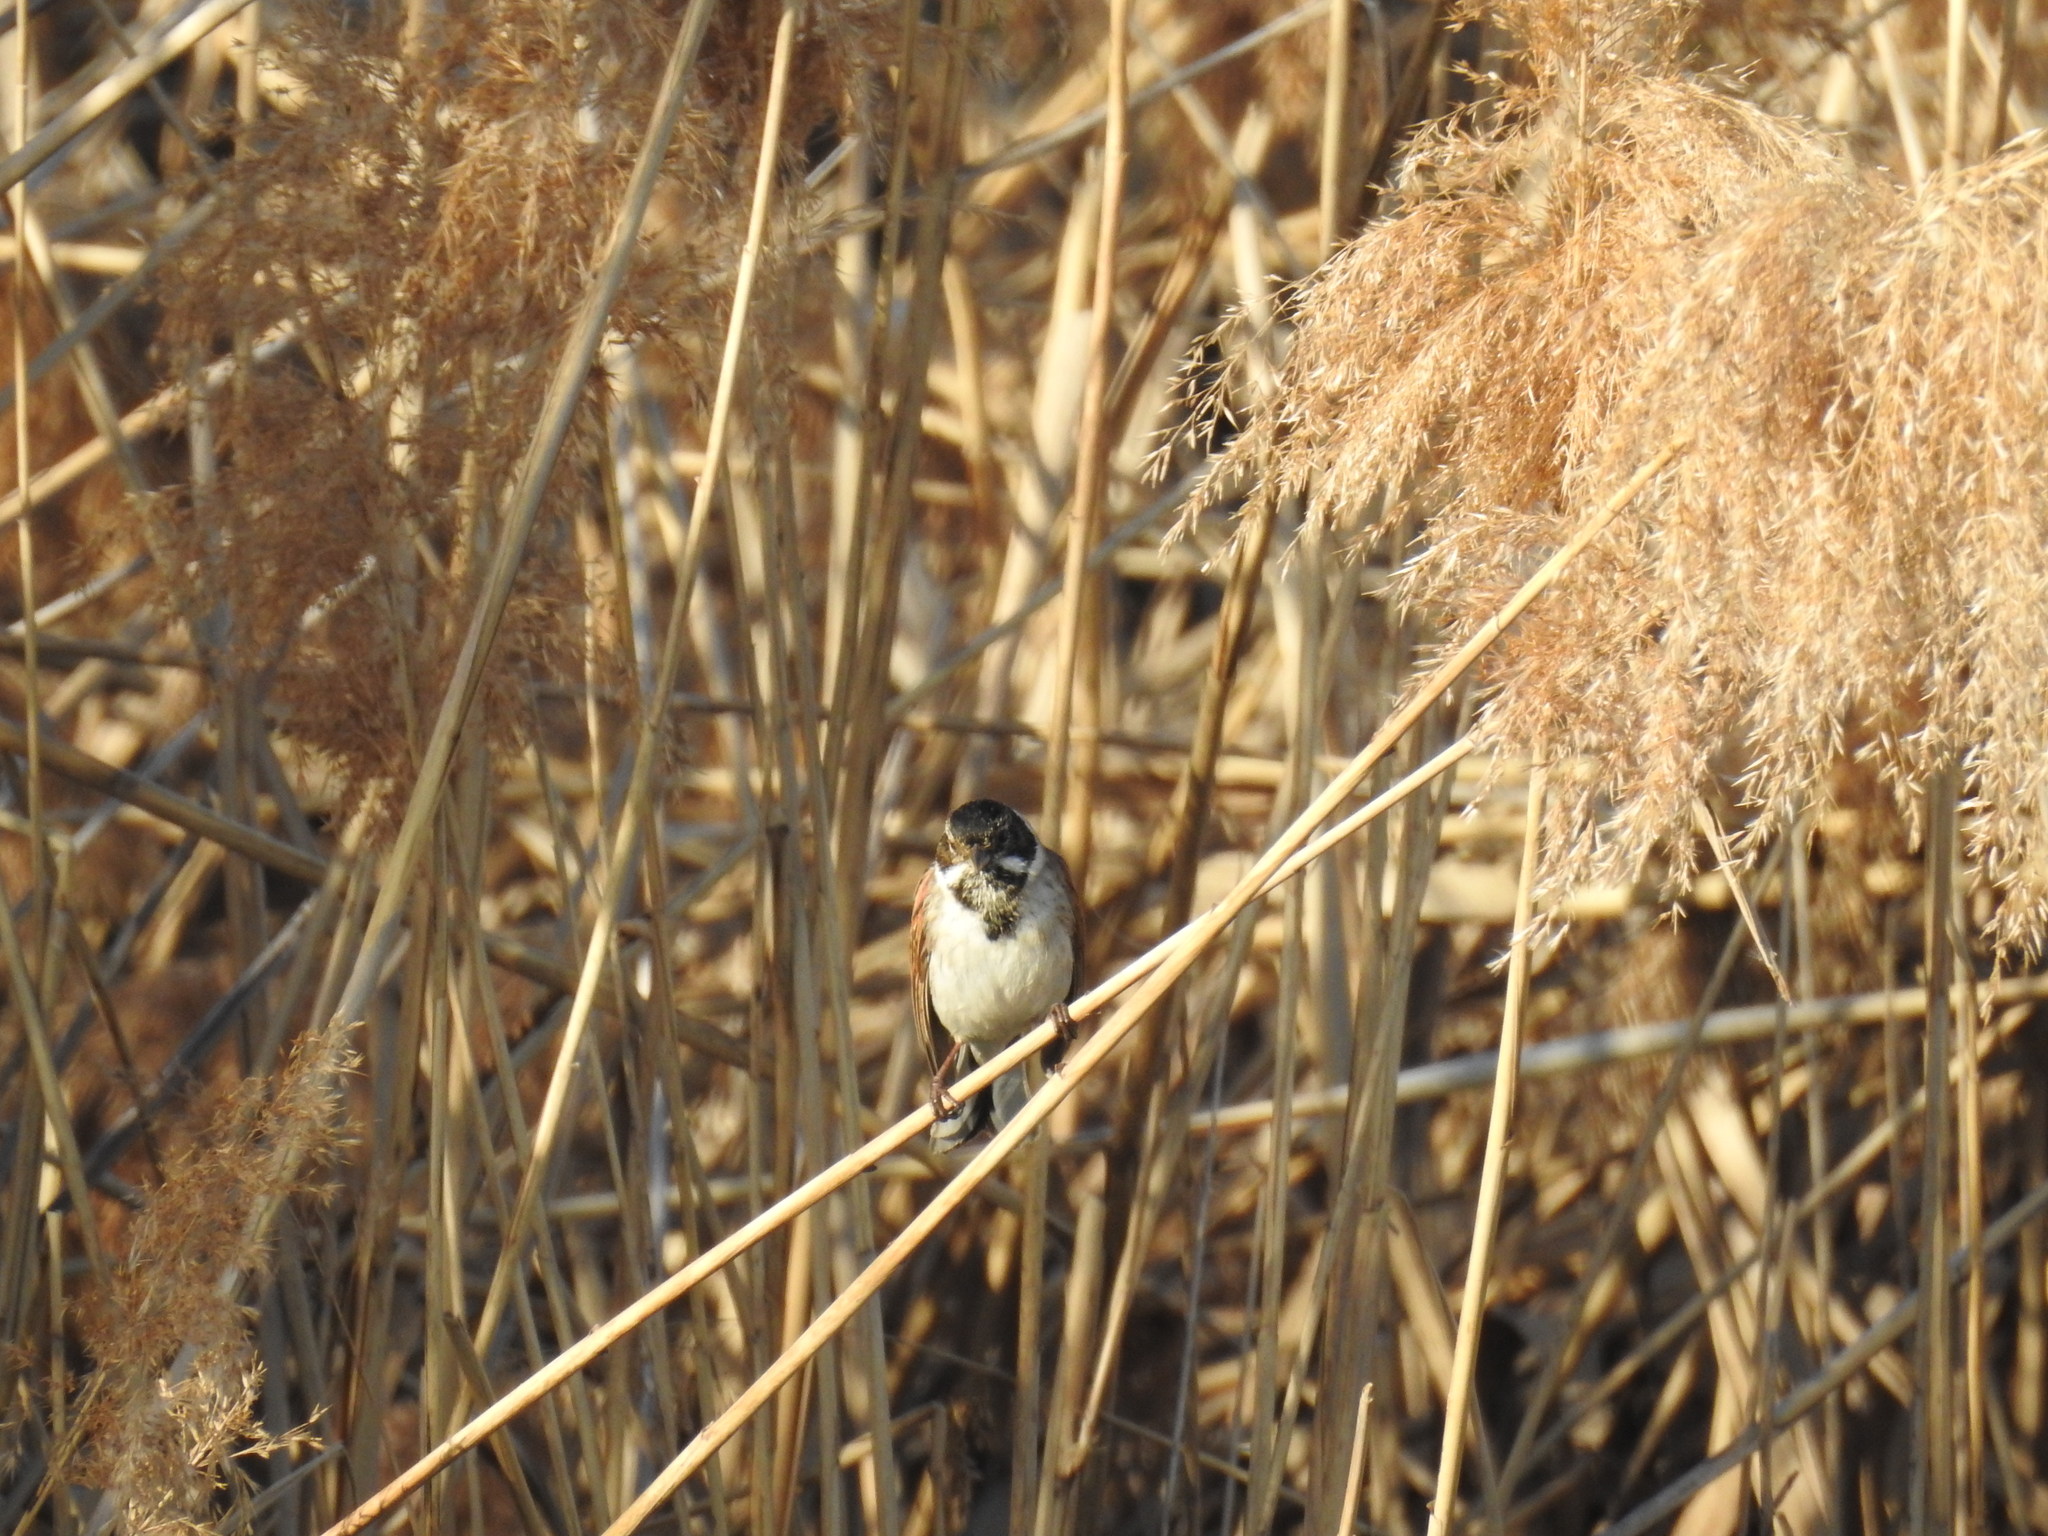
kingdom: Animalia
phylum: Chordata
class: Aves
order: Passeriformes
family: Emberizidae
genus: Emberiza
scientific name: Emberiza schoeniclus
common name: Reed bunting
